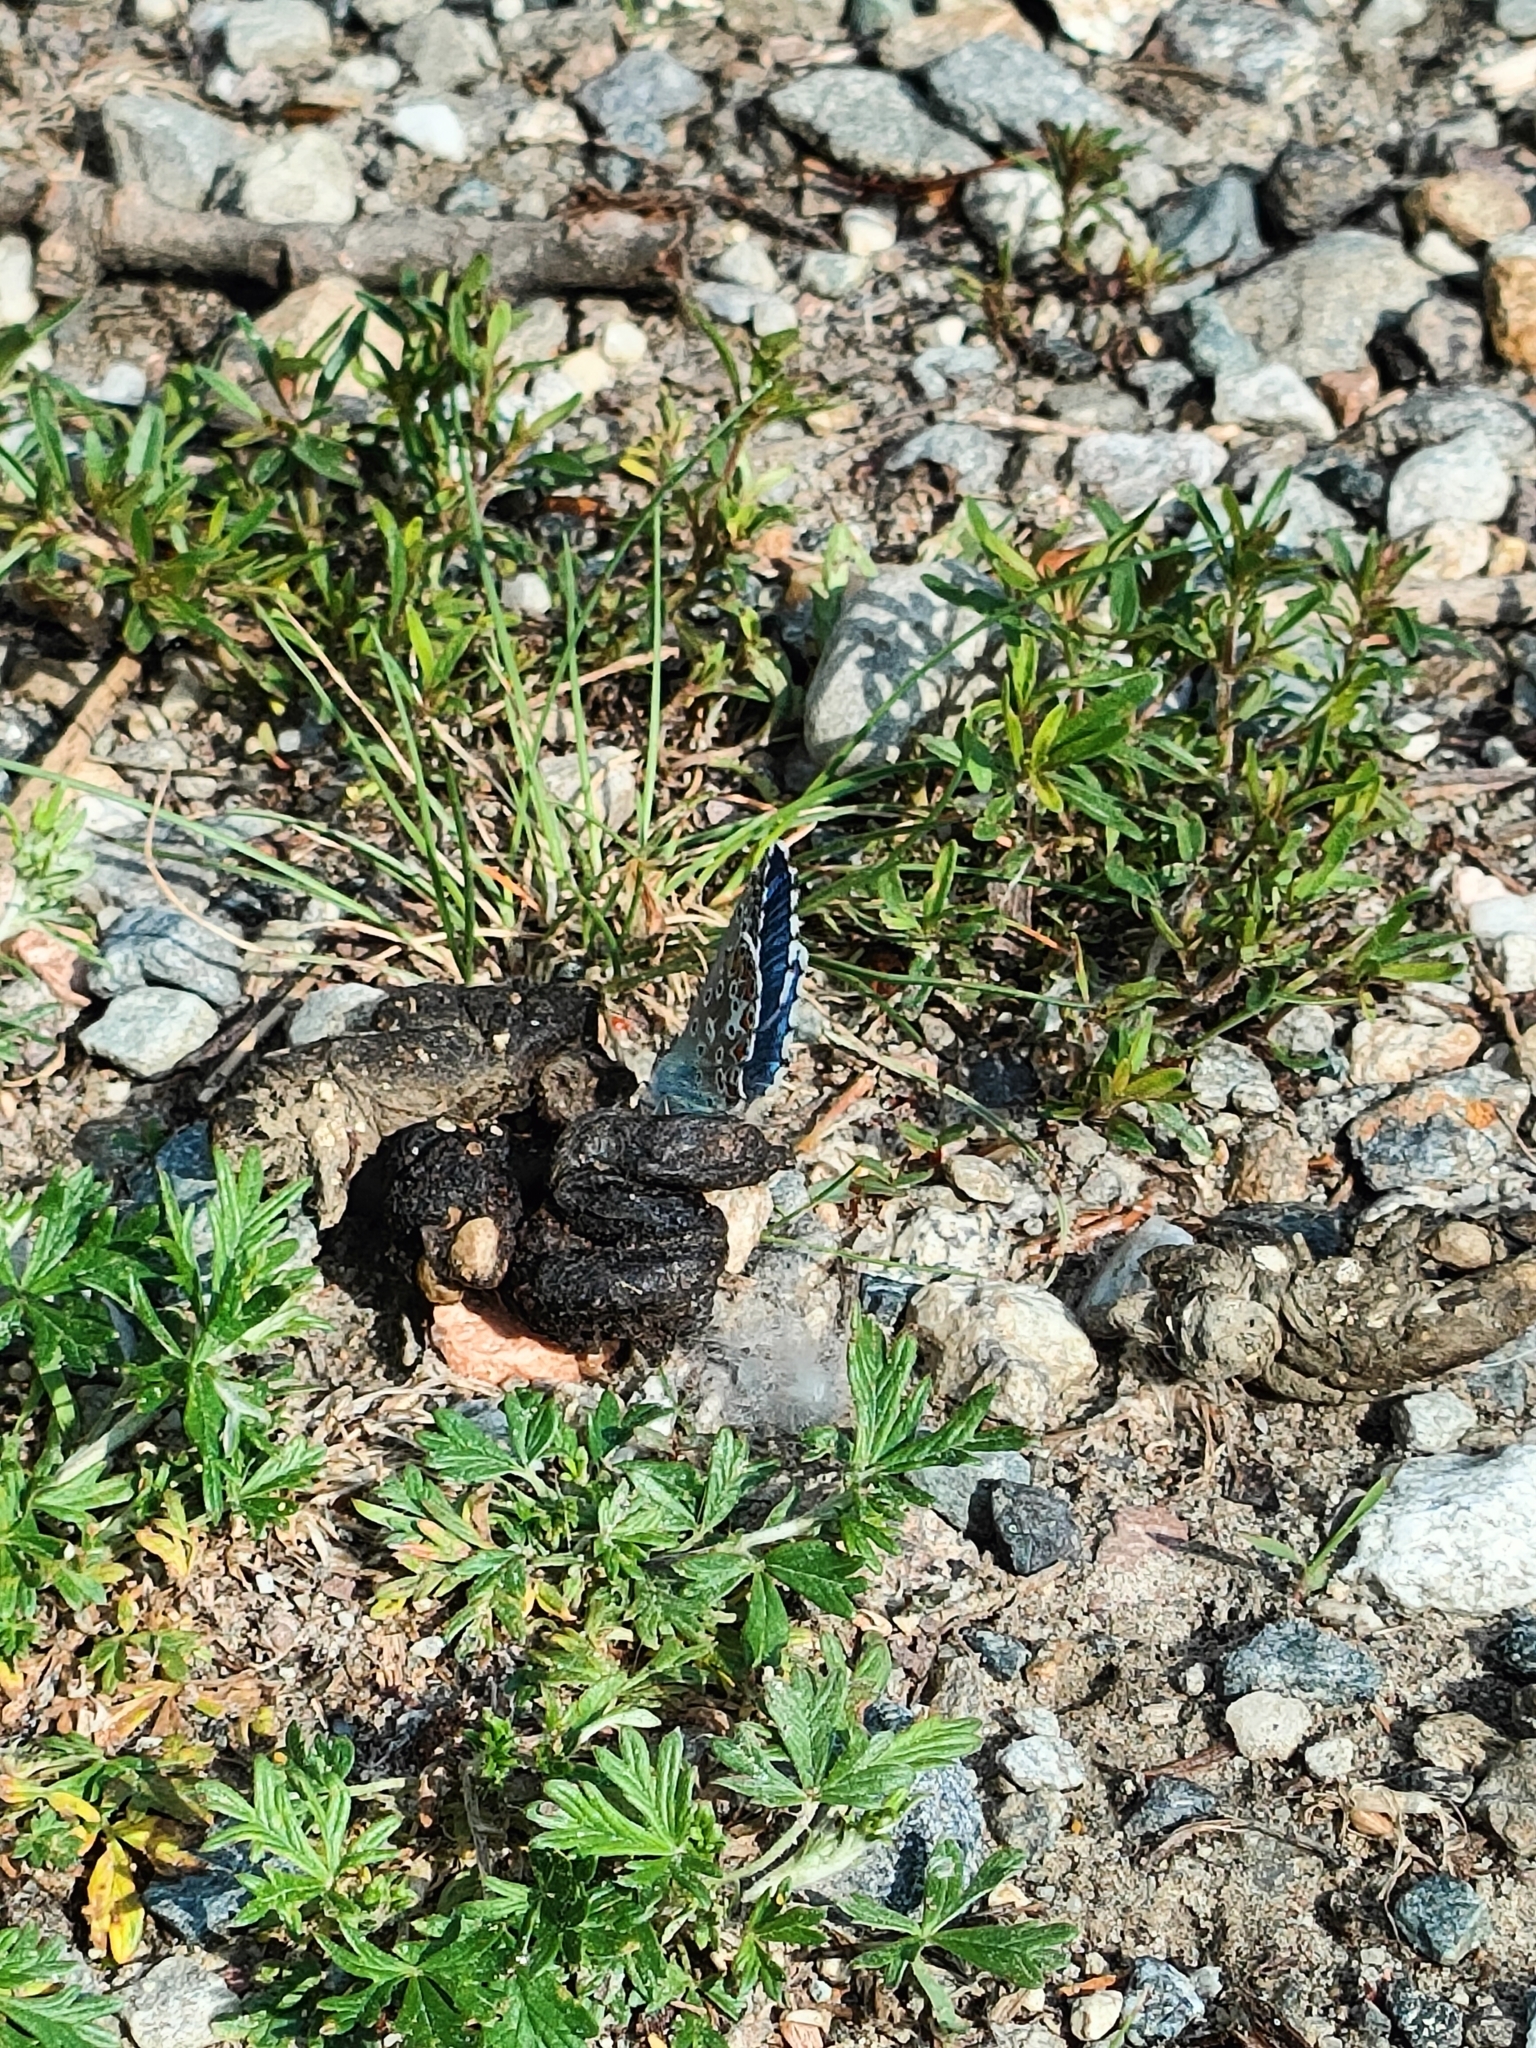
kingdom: Animalia
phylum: Arthropoda
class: Insecta
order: Lepidoptera
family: Lycaenidae
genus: Lysandra
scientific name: Lysandra bellargus
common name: Adonis blue
